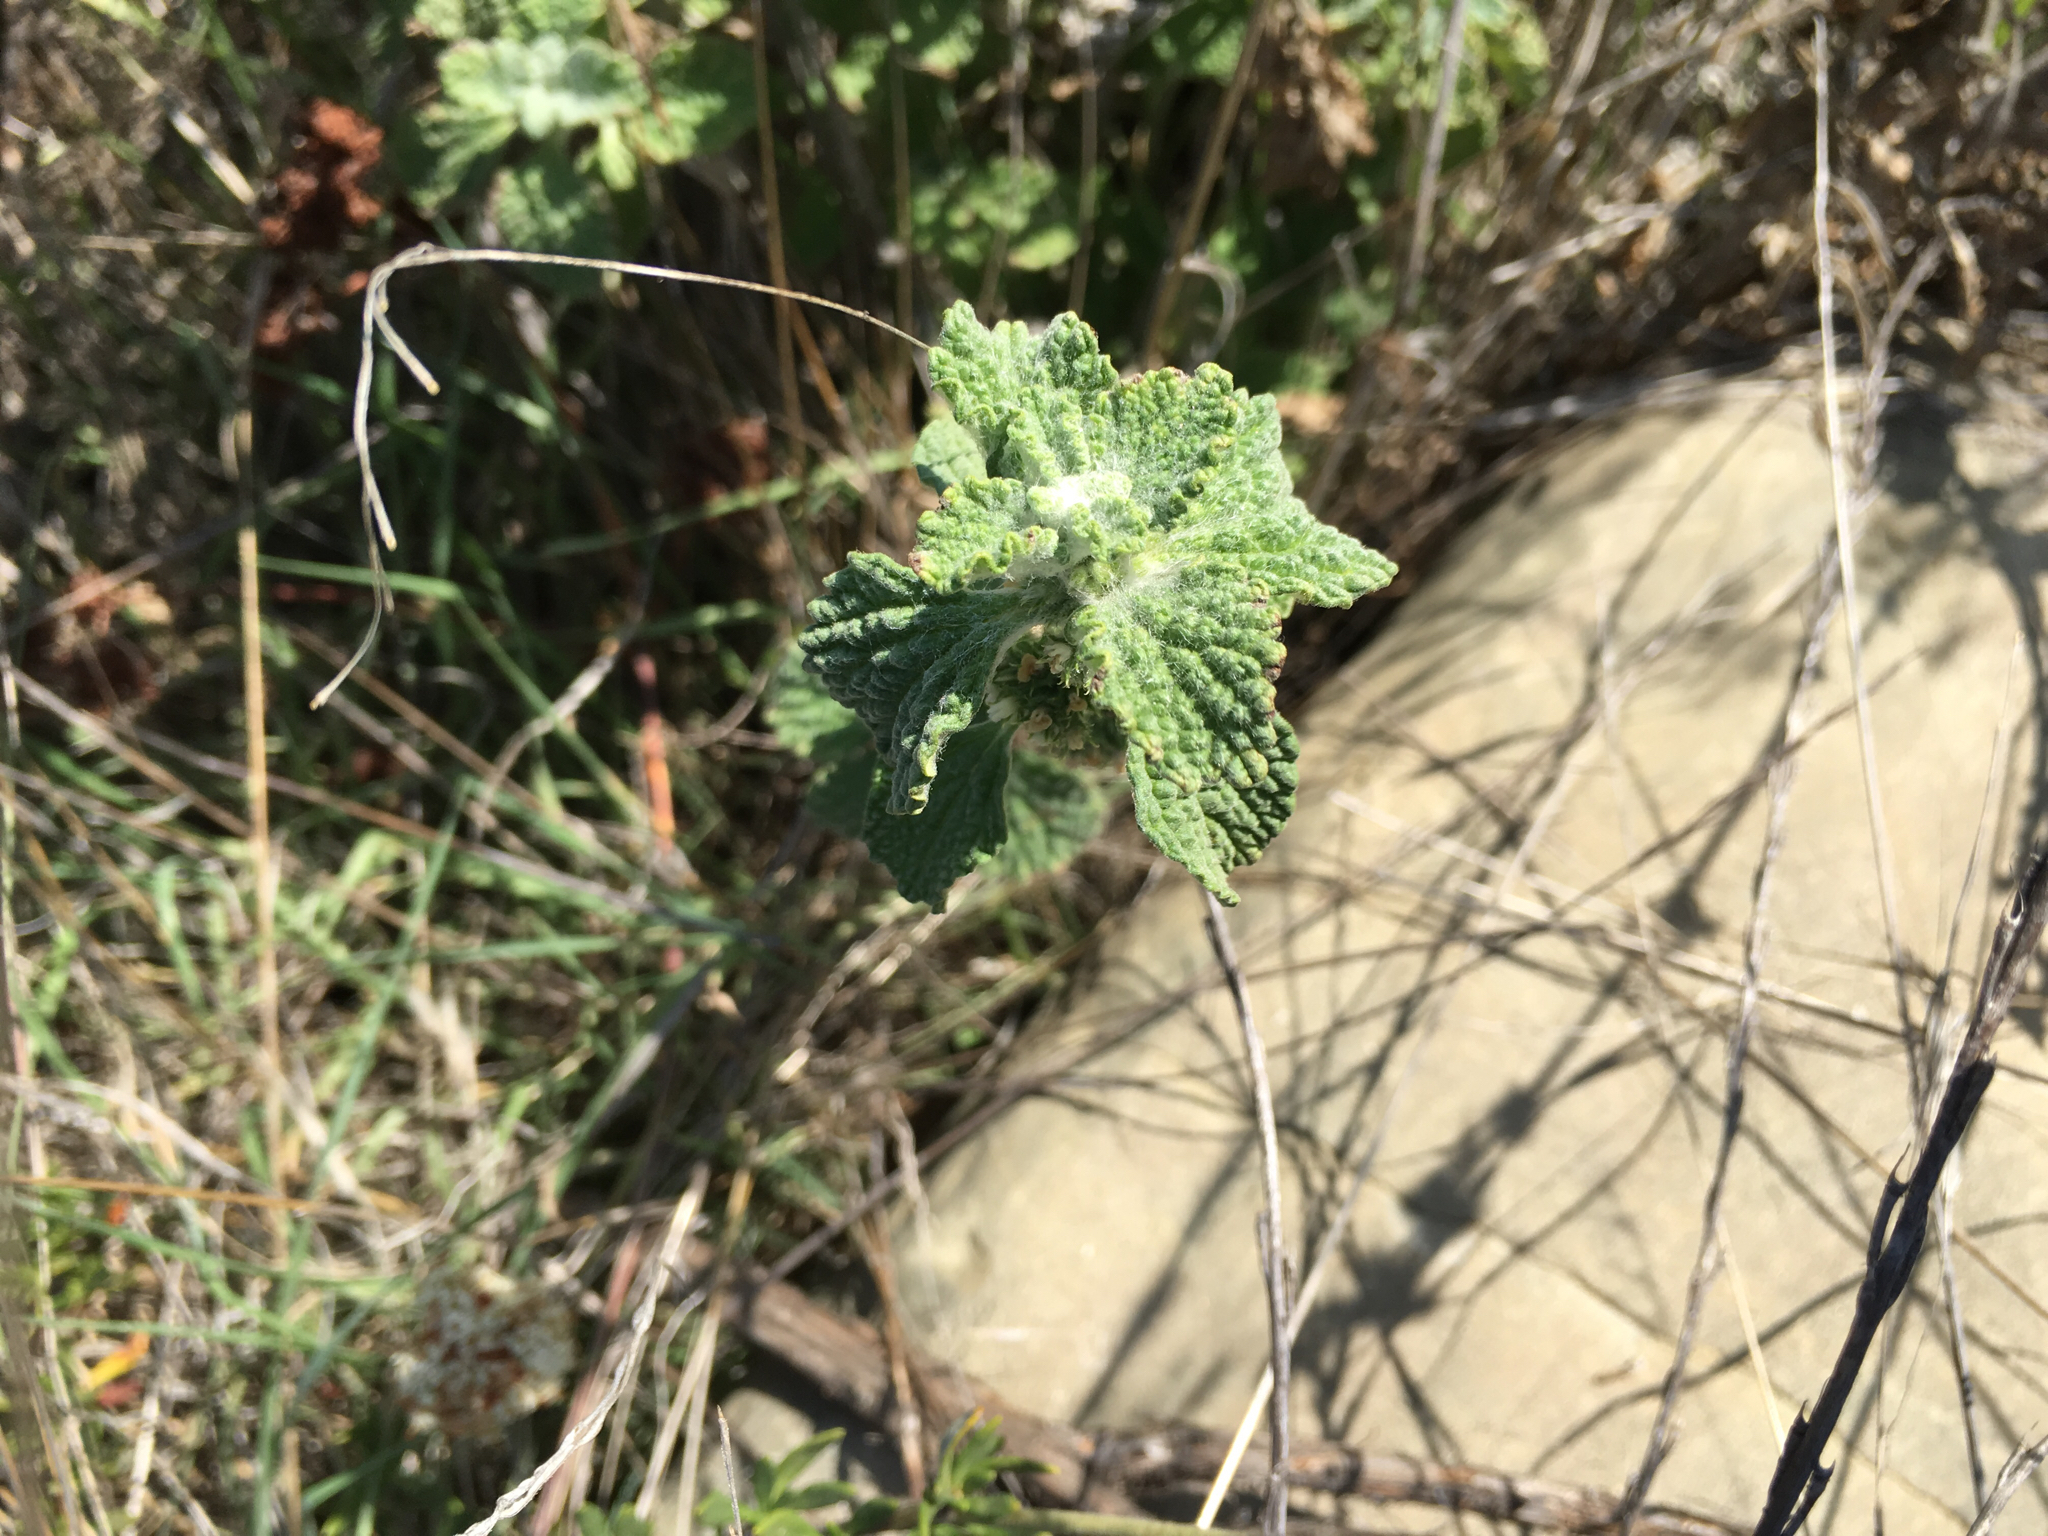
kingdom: Plantae
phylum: Tracheophyta
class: Magnoliopsida
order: Lamiales
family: Lamiaceae
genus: Marrubium
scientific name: Marrubium vulgare
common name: Horehound
